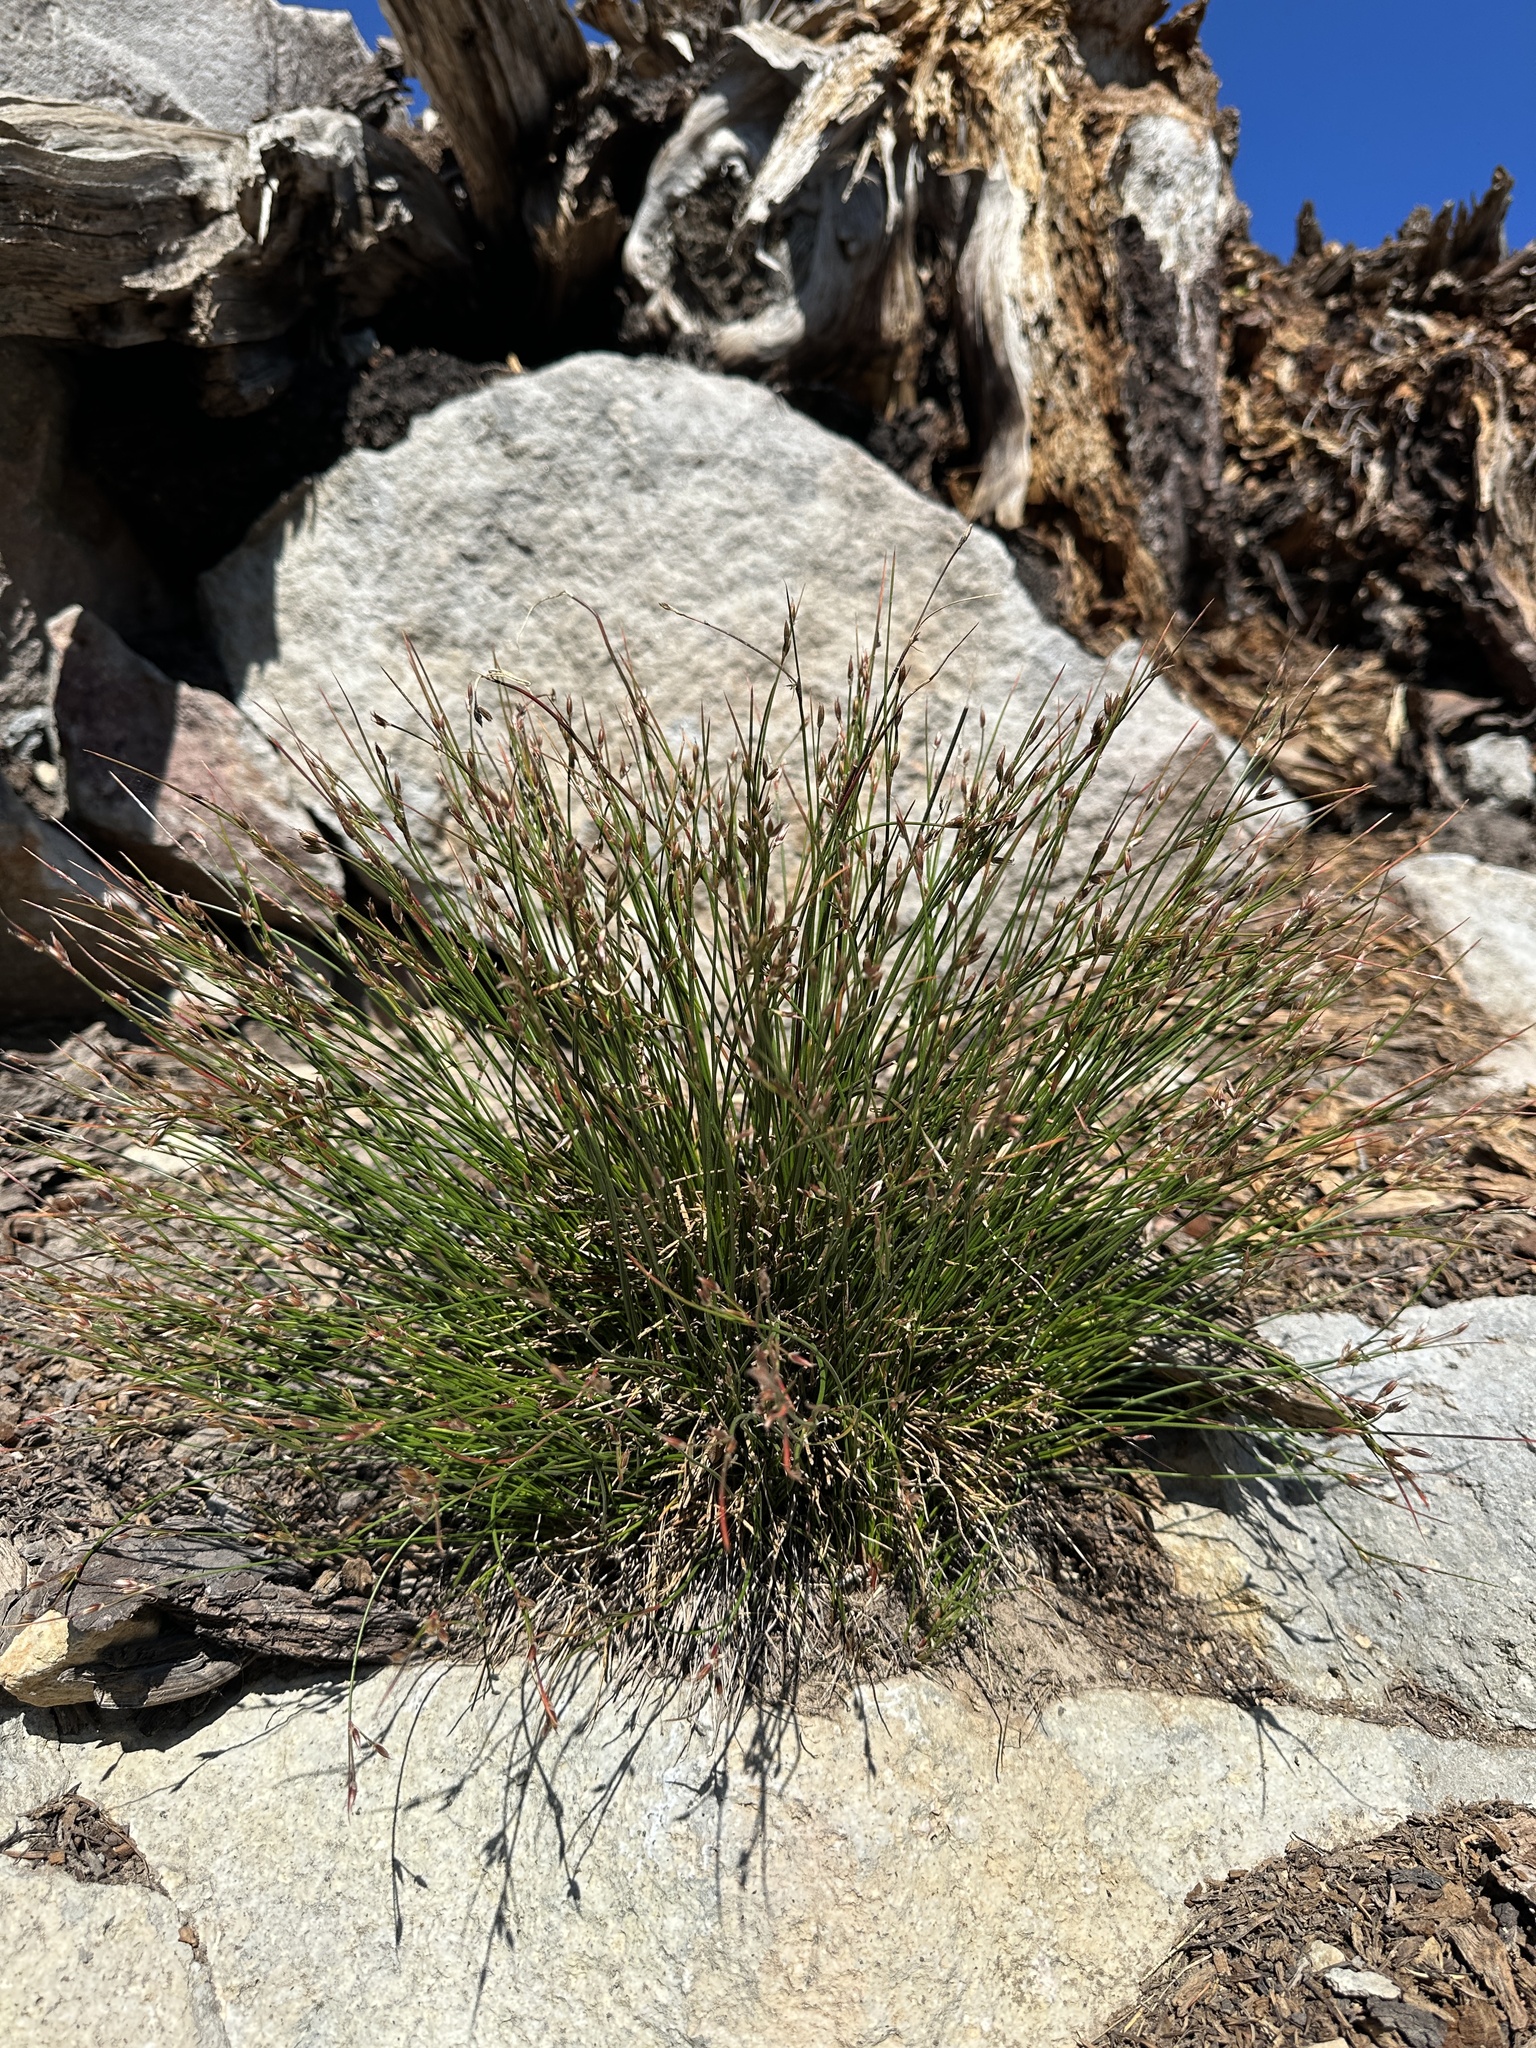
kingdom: Plantae
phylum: Tracheophyta
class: Liliopsida
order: Poales
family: Juncaceae
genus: Juncus
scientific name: Juncus parryi
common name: Parry's rush
